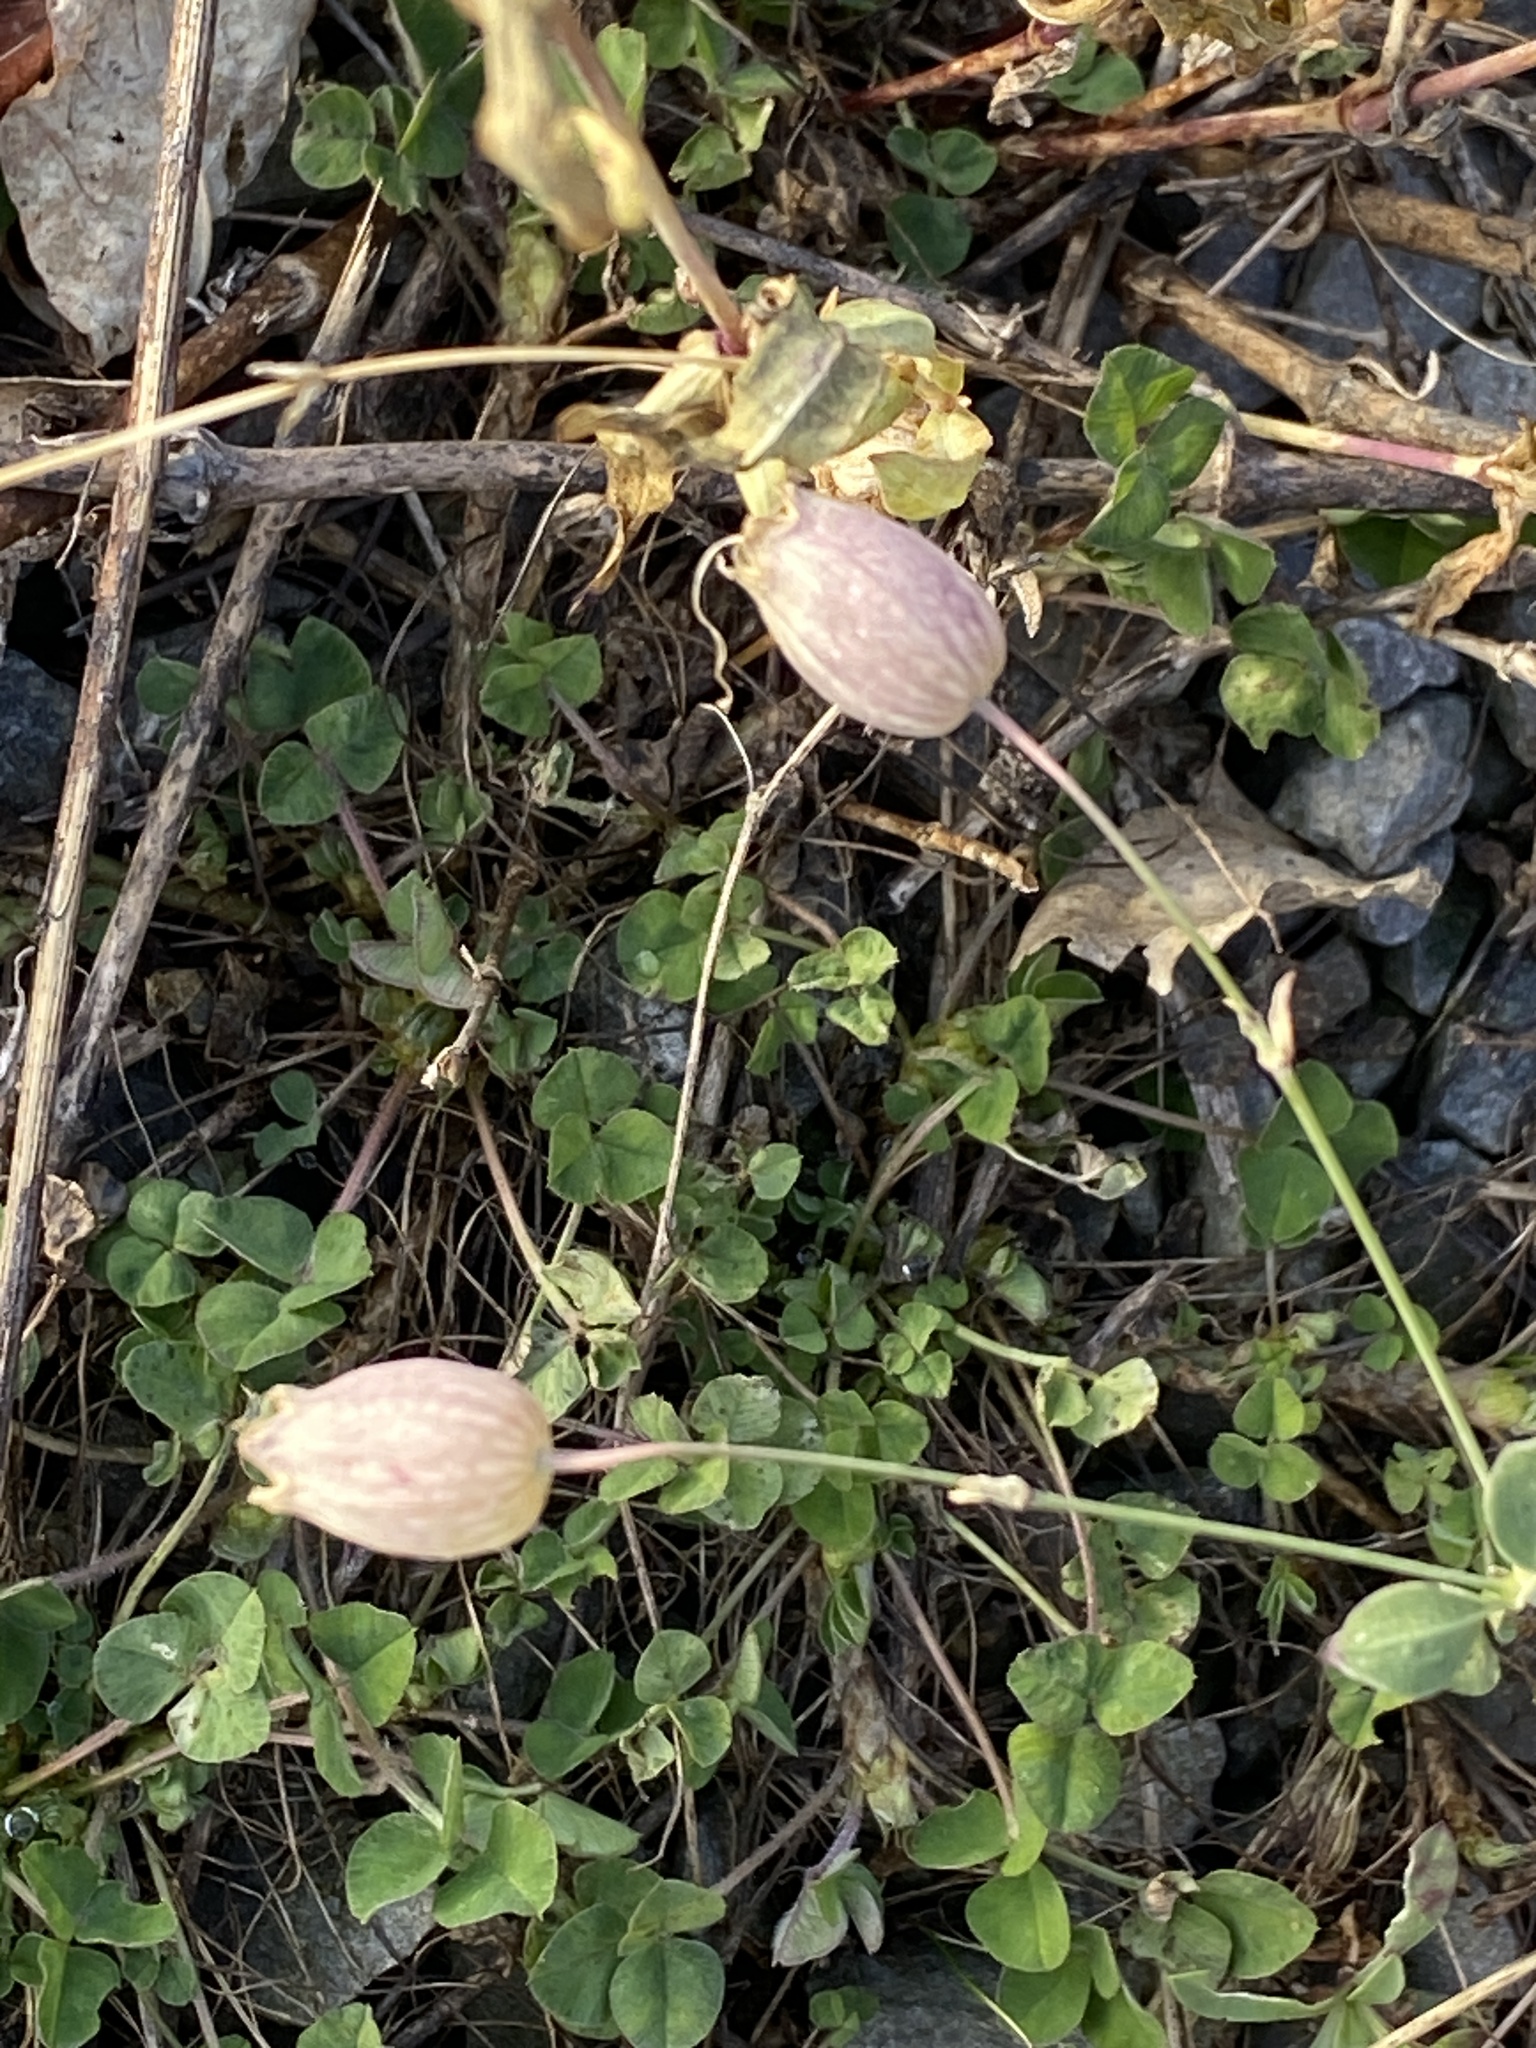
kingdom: Plantae
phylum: Tracheophyta
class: Magnoliopsida
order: Caryophyllales
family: Caryophyllaceae
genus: Silene
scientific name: Silene vulgaris
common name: Bladder campion
